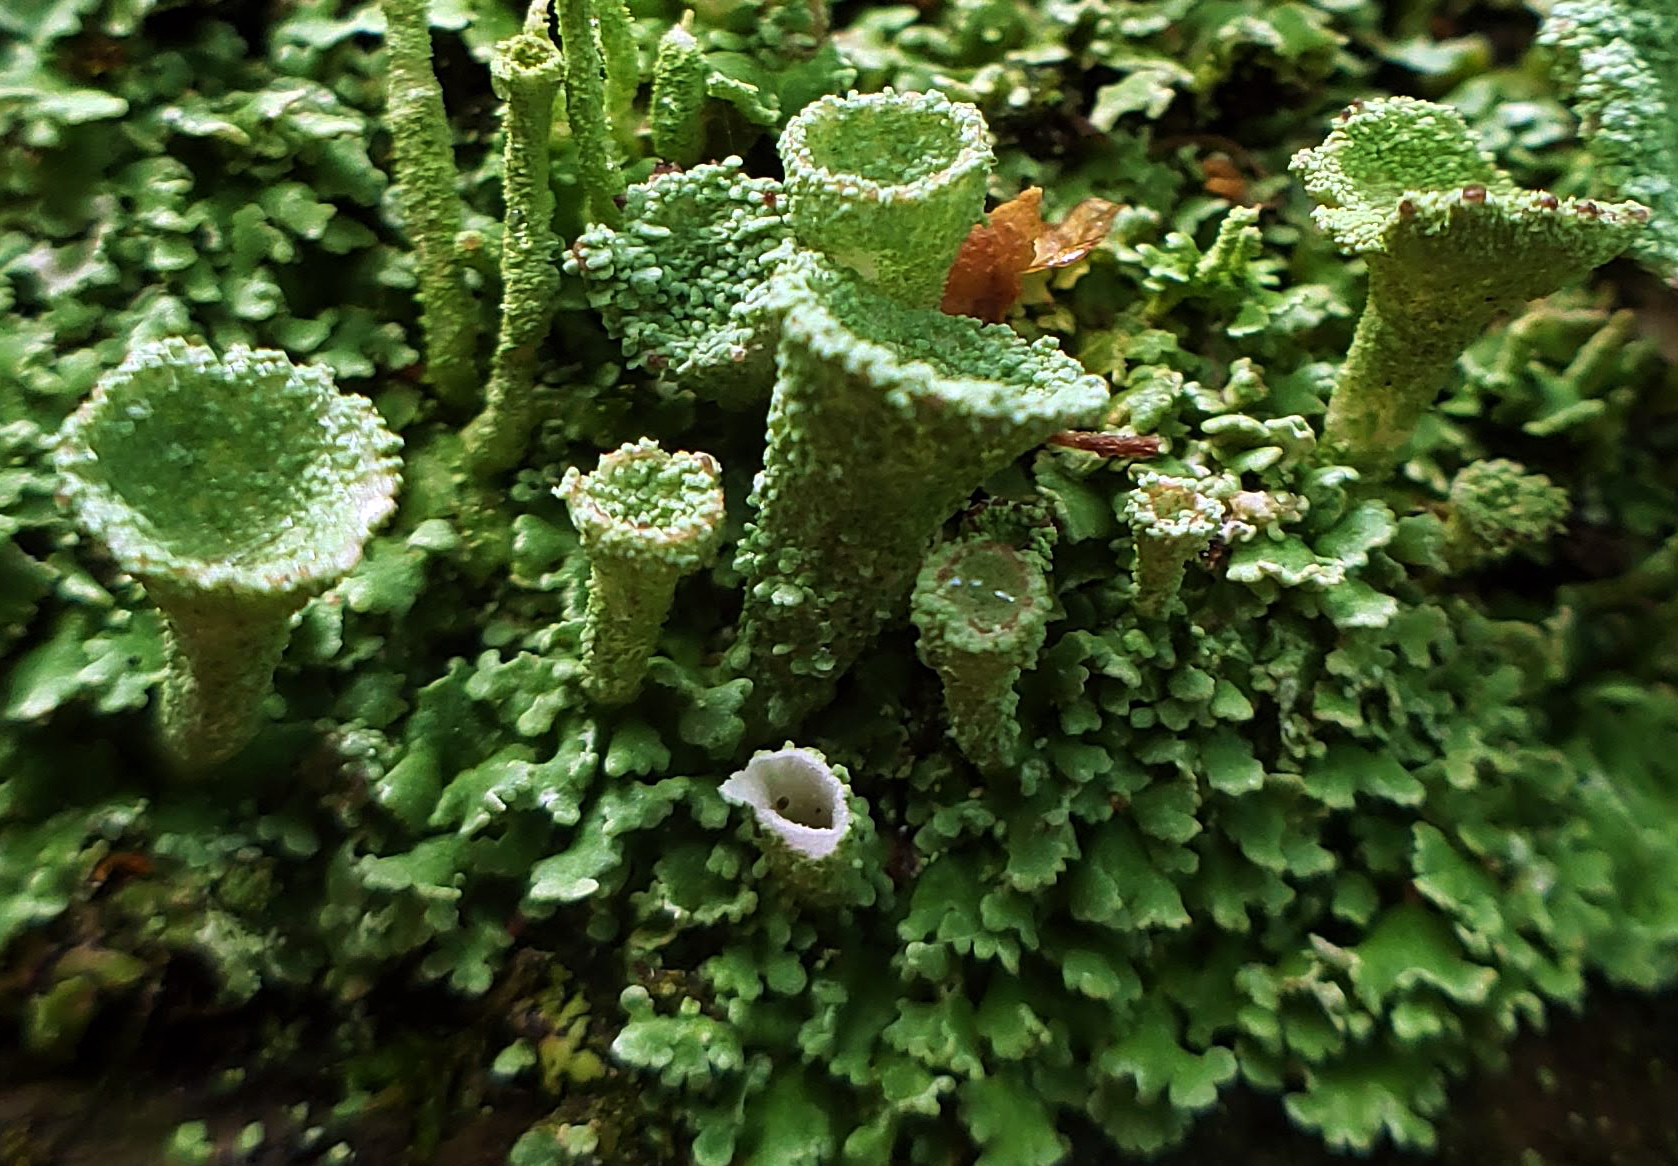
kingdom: Fungi
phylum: Ascomycota
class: Lecanoromycetes
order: Lecanorales
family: Cladoniaceae
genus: Cladonia
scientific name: Cladonia pyxidata
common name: Pebbled pixie cup
